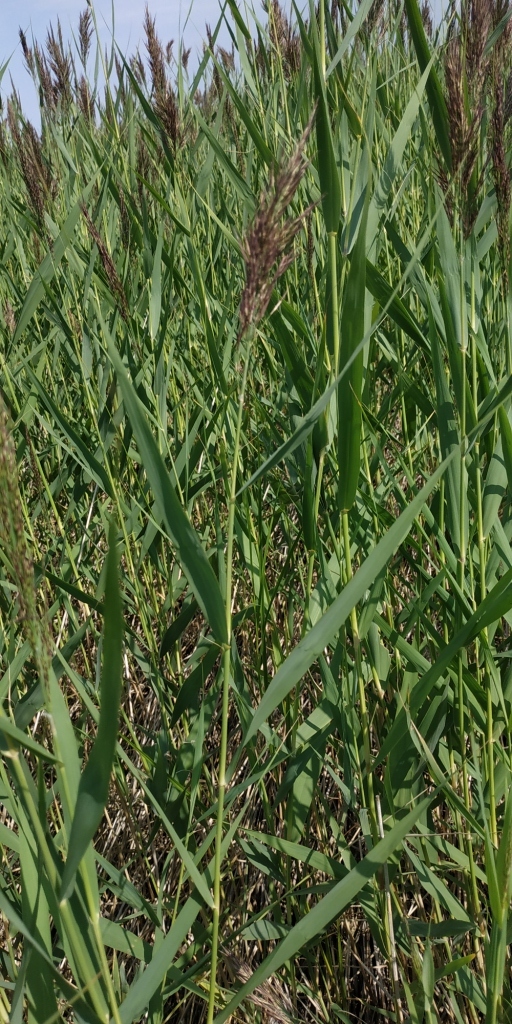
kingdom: Plantae
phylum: Tracheophyta
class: Liliopsida
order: Poales
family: Poaceae
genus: Phragmites
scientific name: Phragmites australis
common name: Common reed
